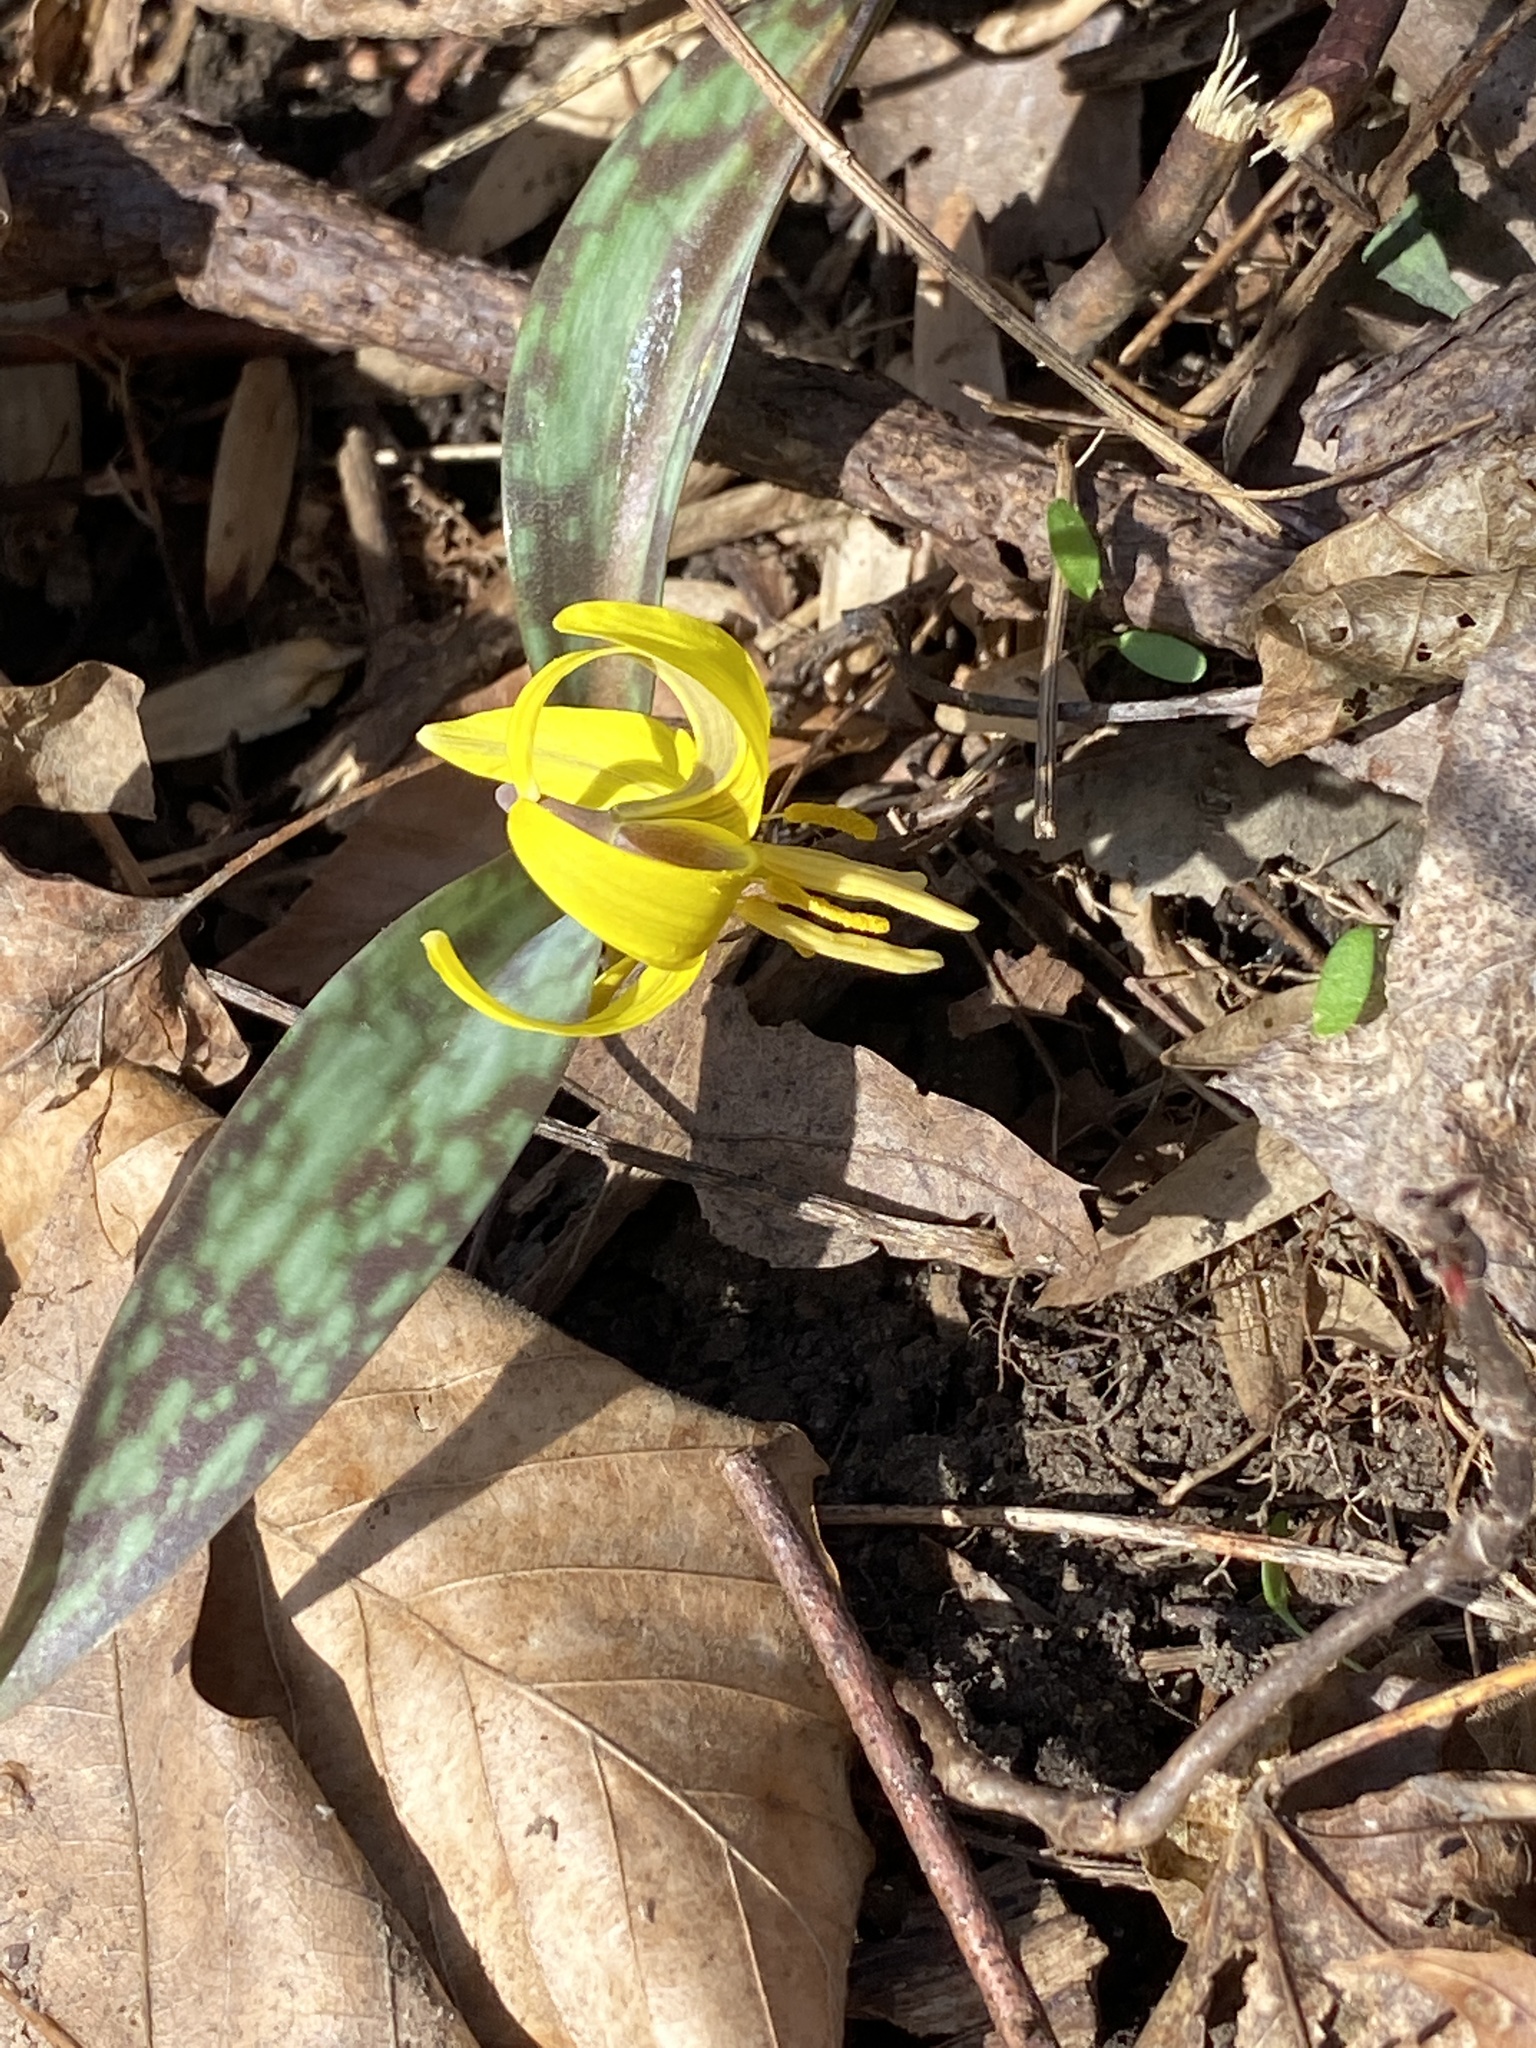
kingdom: Plantae
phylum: Tracheophyta
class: Liliopsida
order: Liliales
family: Liliaceae
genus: Erythronium
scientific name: Erythronium americanum
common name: Yellow adder's-tongue
